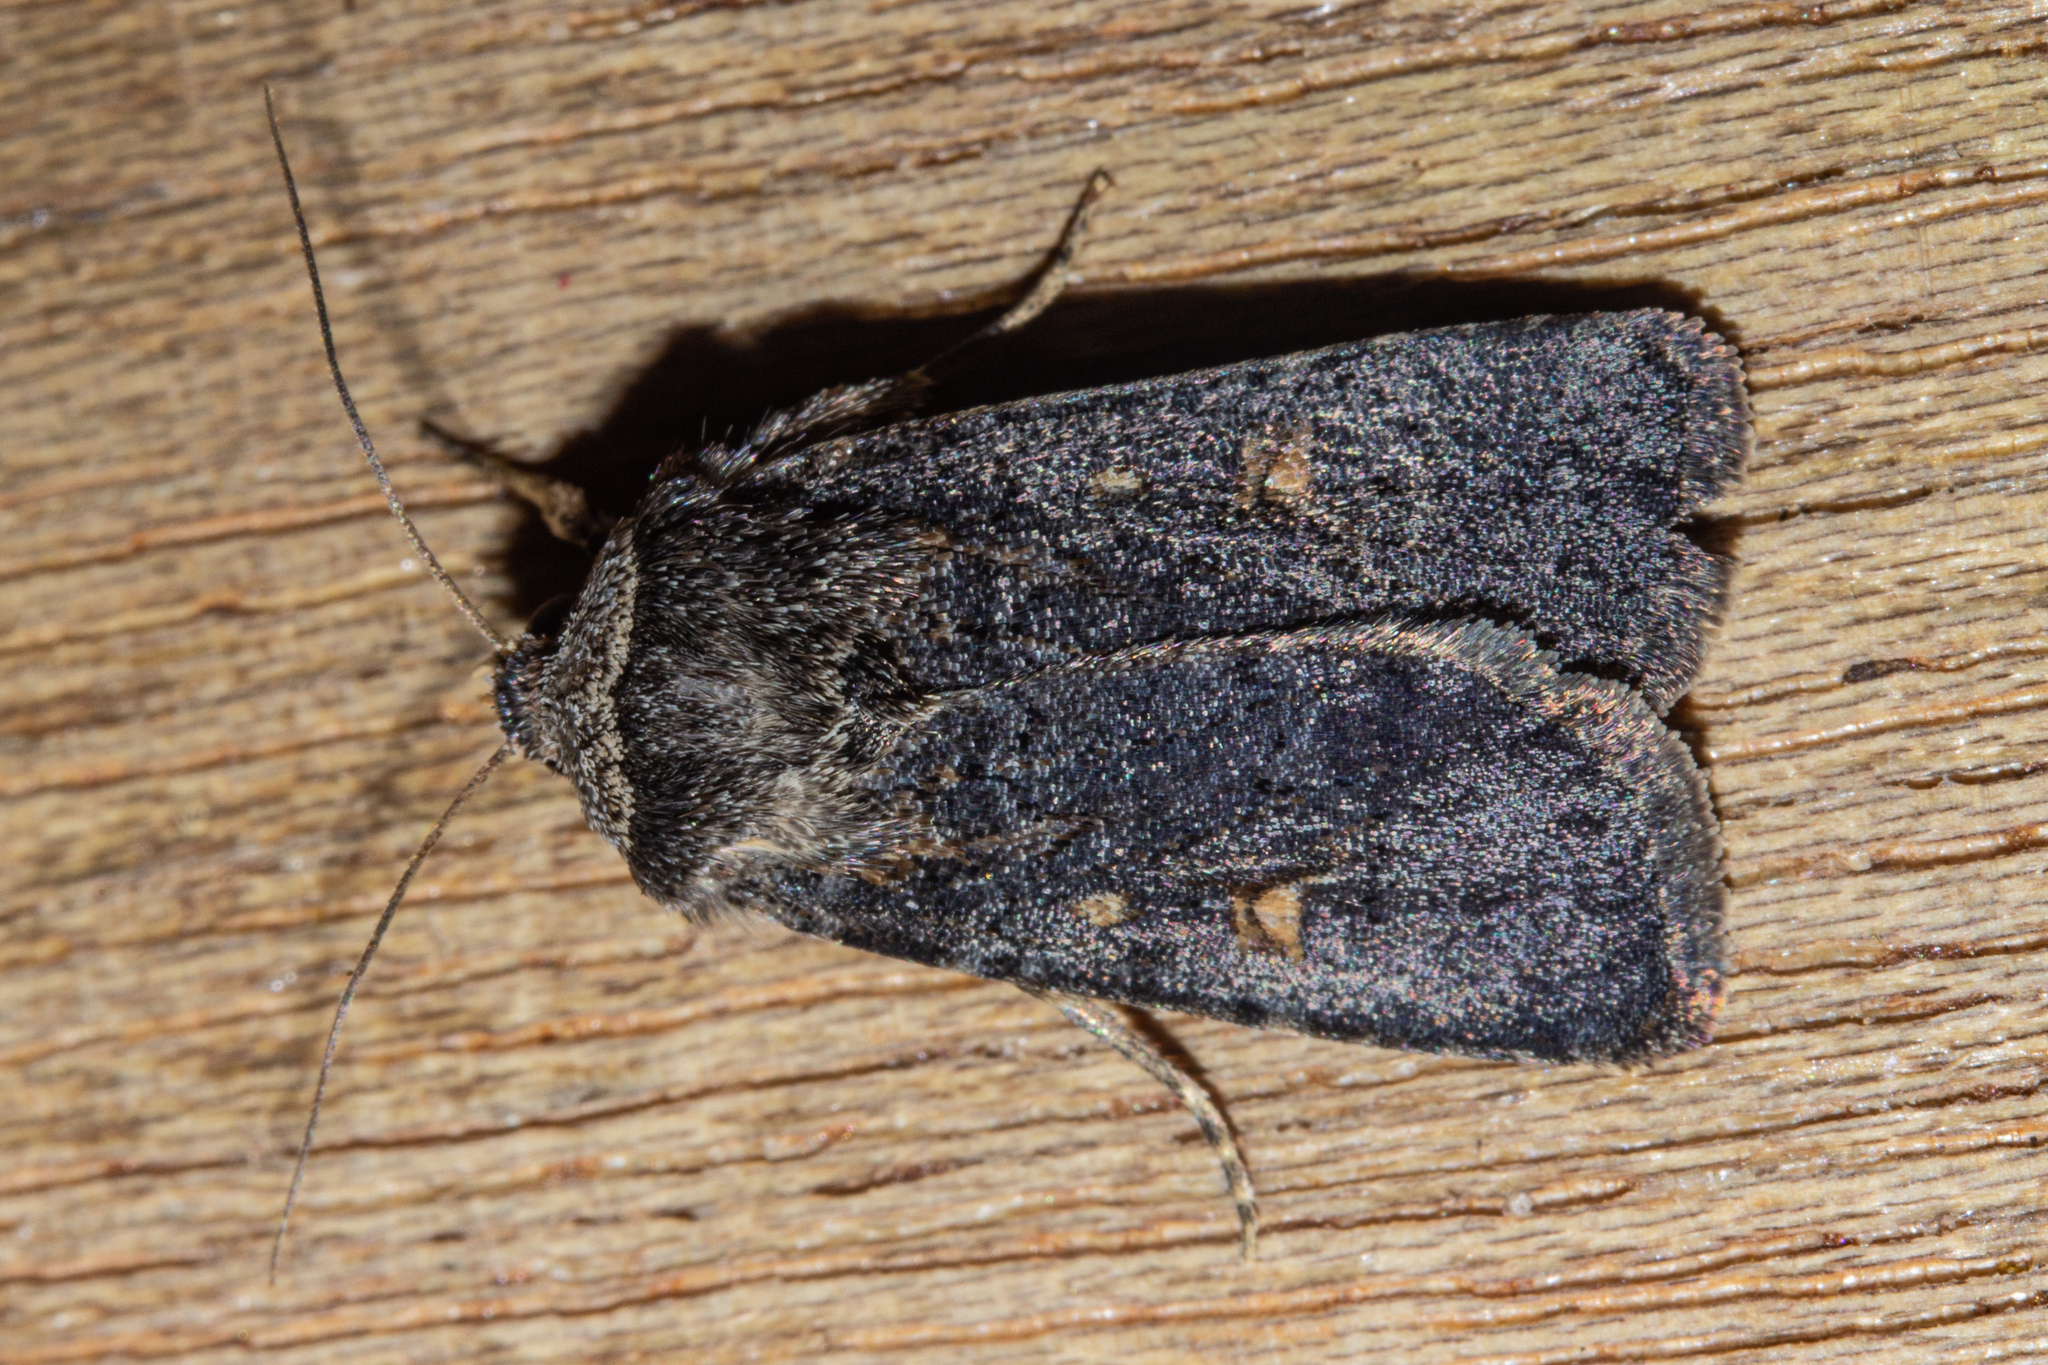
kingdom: Animalia
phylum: Arthropoda
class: Insecta
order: Lepidoptera
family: Noctuidae
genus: Proteuxoa
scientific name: Proteuxoa tetronycha
